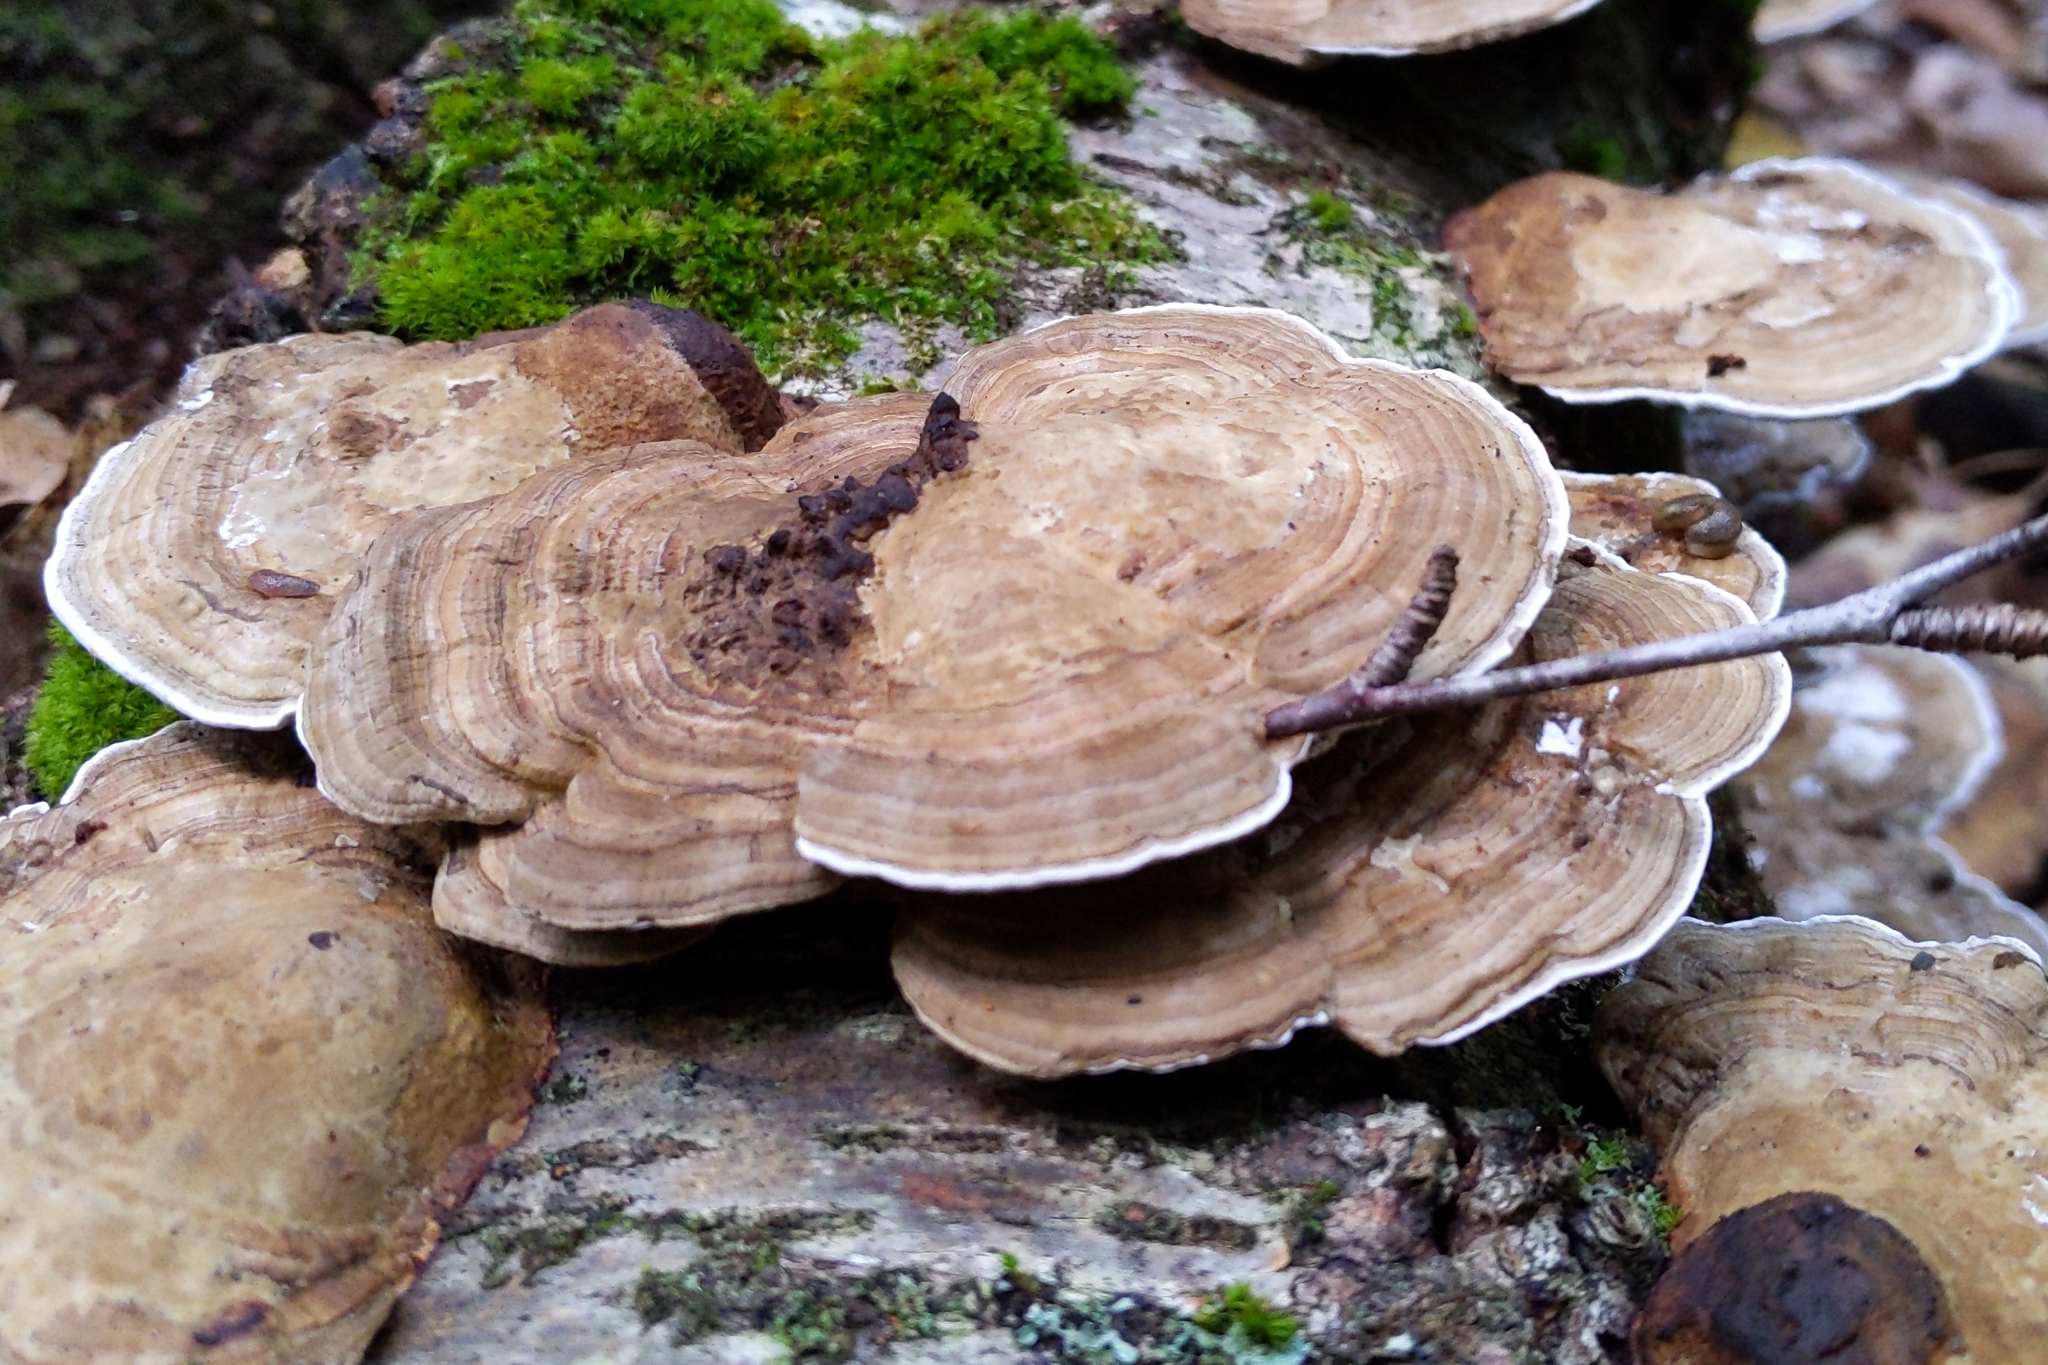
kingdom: Fungi
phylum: Basidiomycota
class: Agaricomycetes
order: Polyporales
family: Polyporaceae
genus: Daedaleopsis
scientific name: Daedaleopsis confragosa
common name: Blushing bracket
